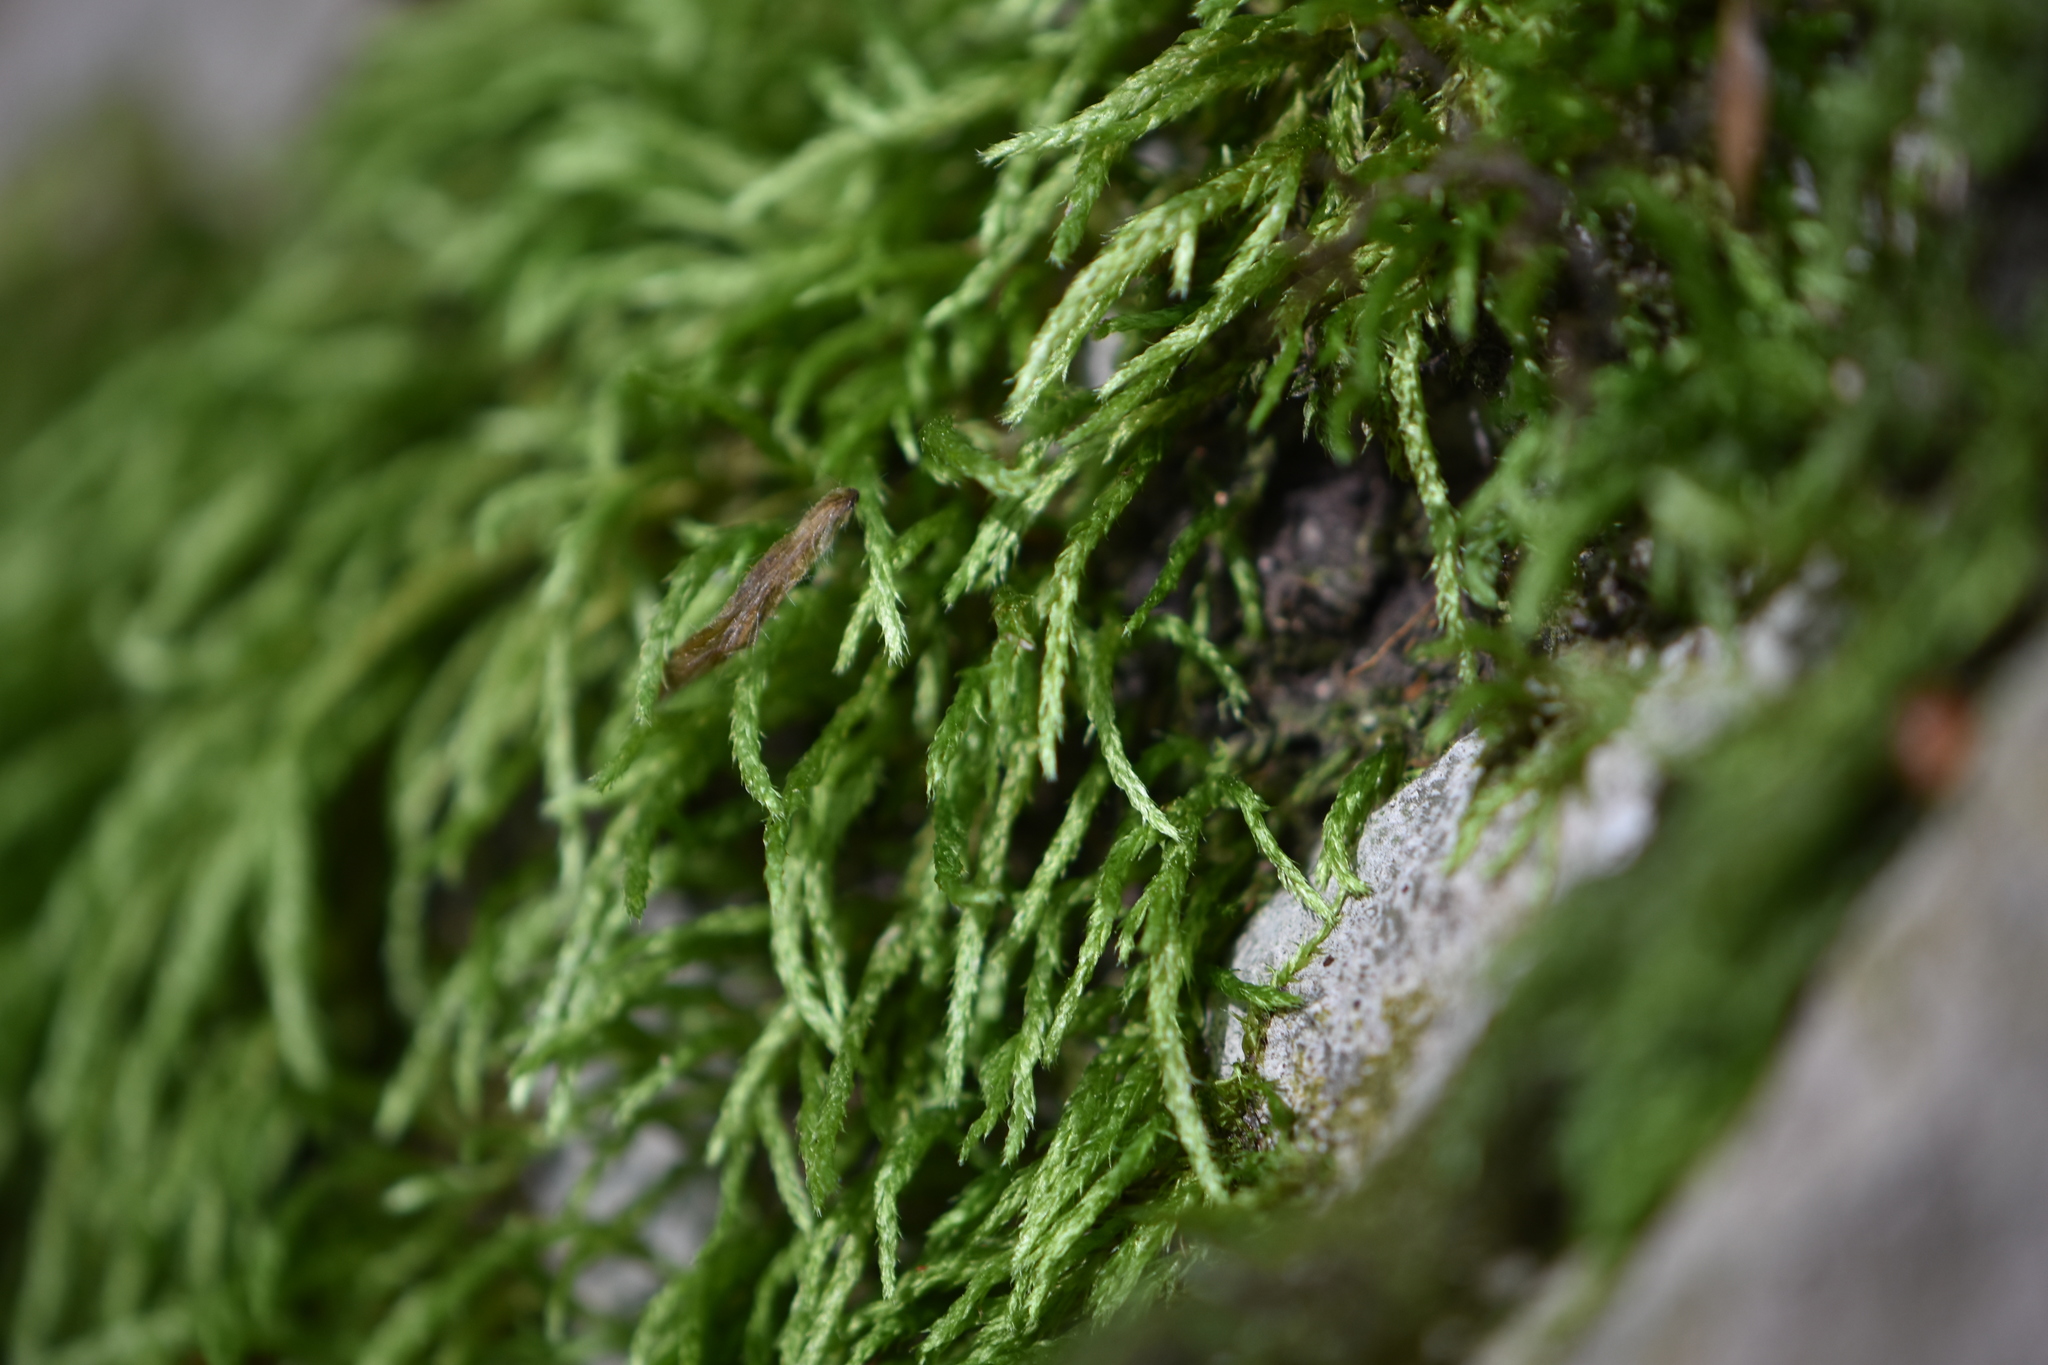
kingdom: Plantae
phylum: Bryophyta
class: Bryopsida
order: Hypnales
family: Hypnaceae
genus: Hypnum
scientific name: Hypnum cupressiforme
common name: Cypress-leaved plait-moss
